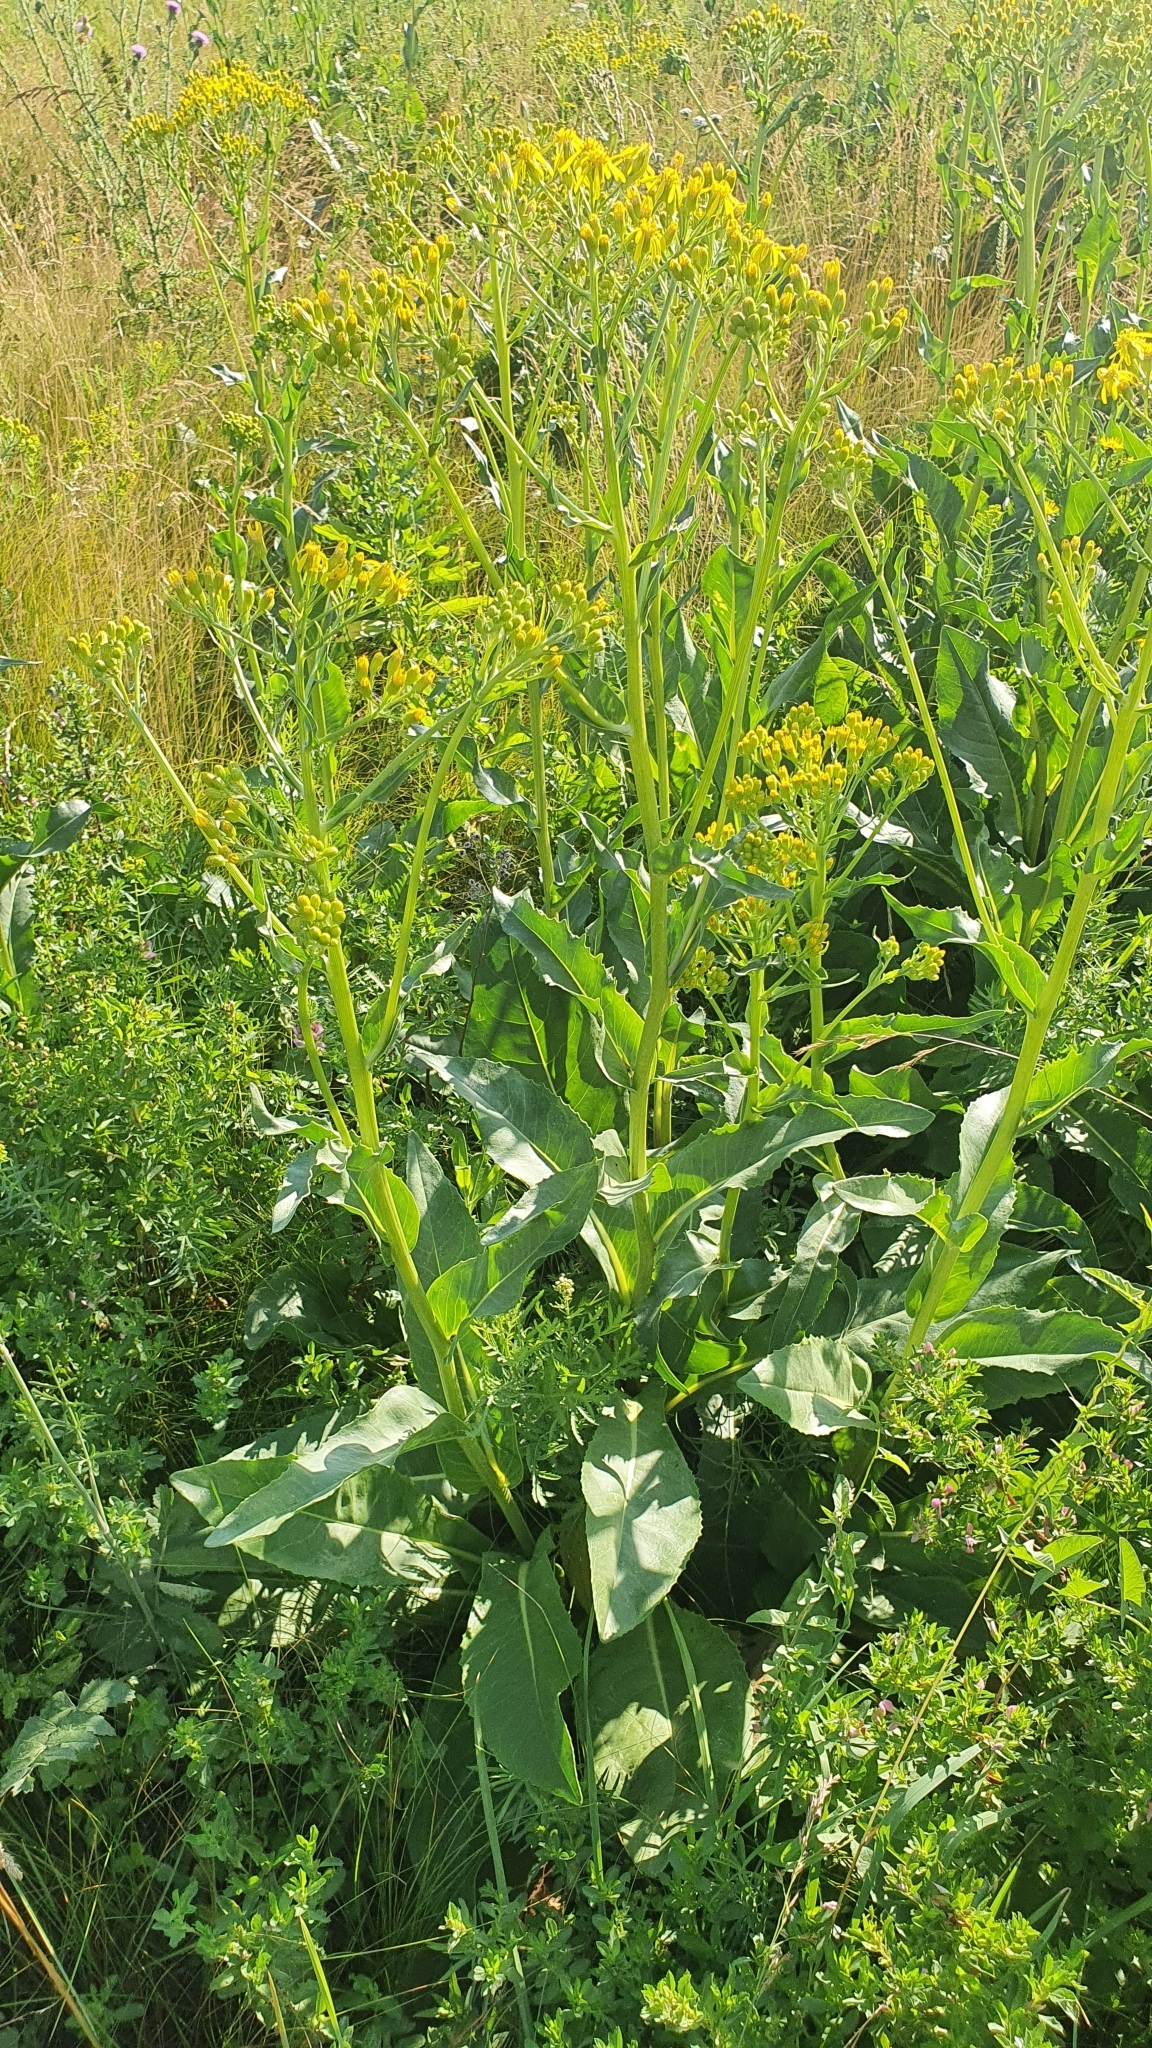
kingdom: Plantae
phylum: Tracheophyta
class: Magnoliopsida
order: Asterales
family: Asteraceae
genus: Senecio
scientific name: Senecio doria
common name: Golden ragwort
